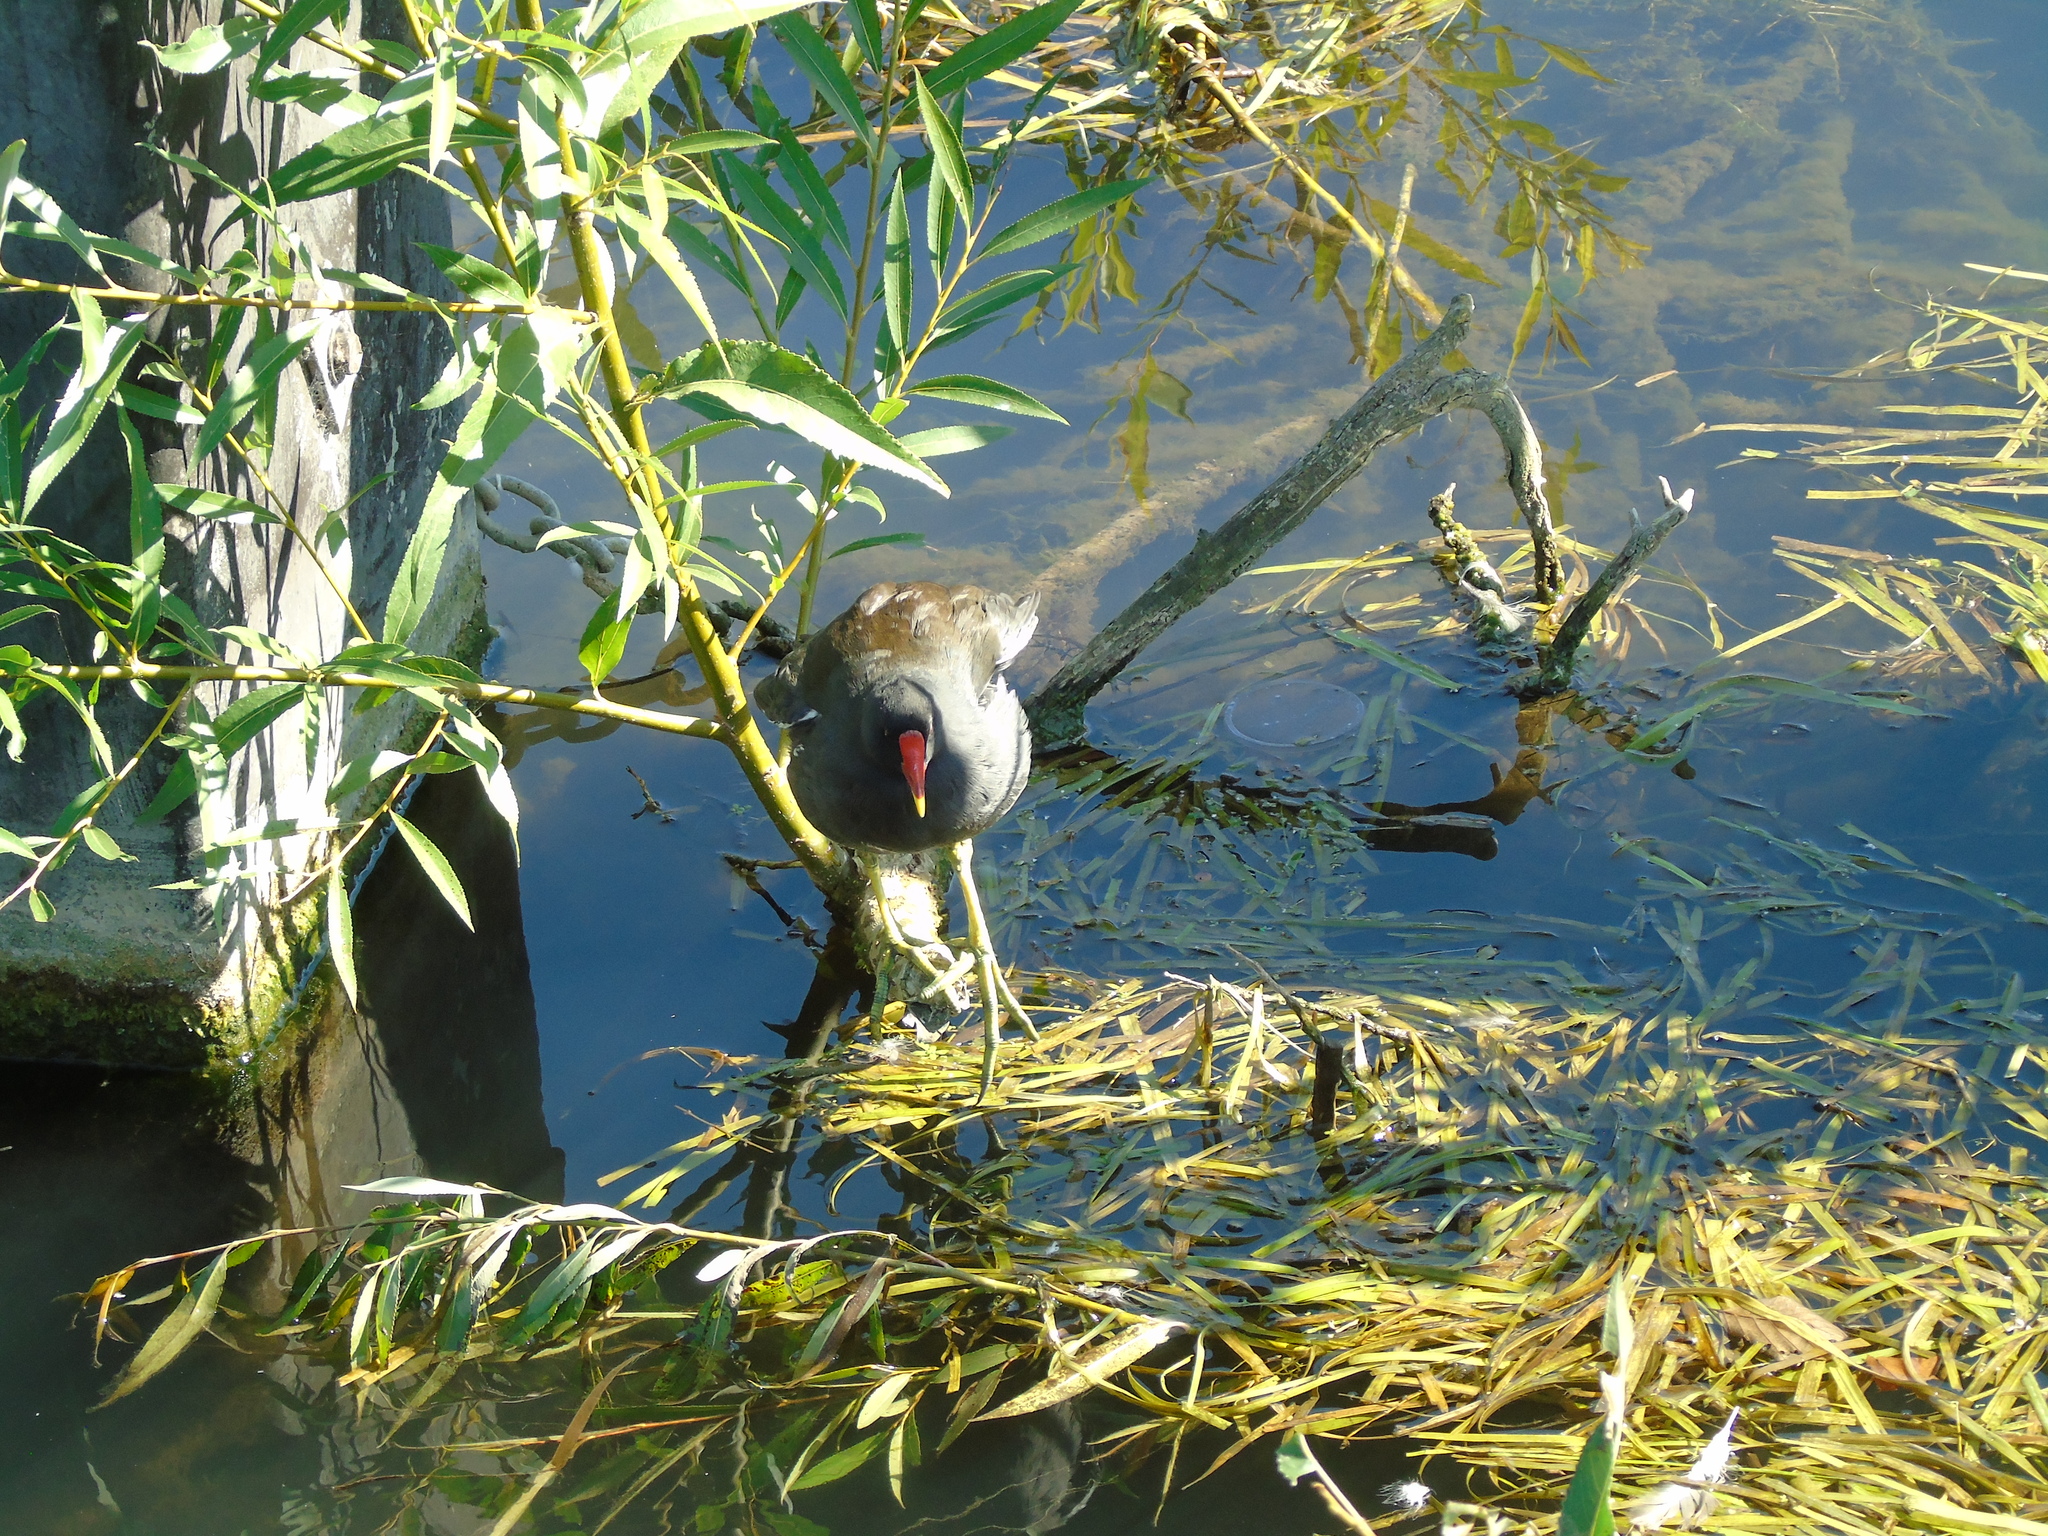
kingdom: Animalia
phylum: Chordata
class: Aves
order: Gruiformes
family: Rallidae
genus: Gallinula
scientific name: Gallinula chloropus
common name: Common moorhen
